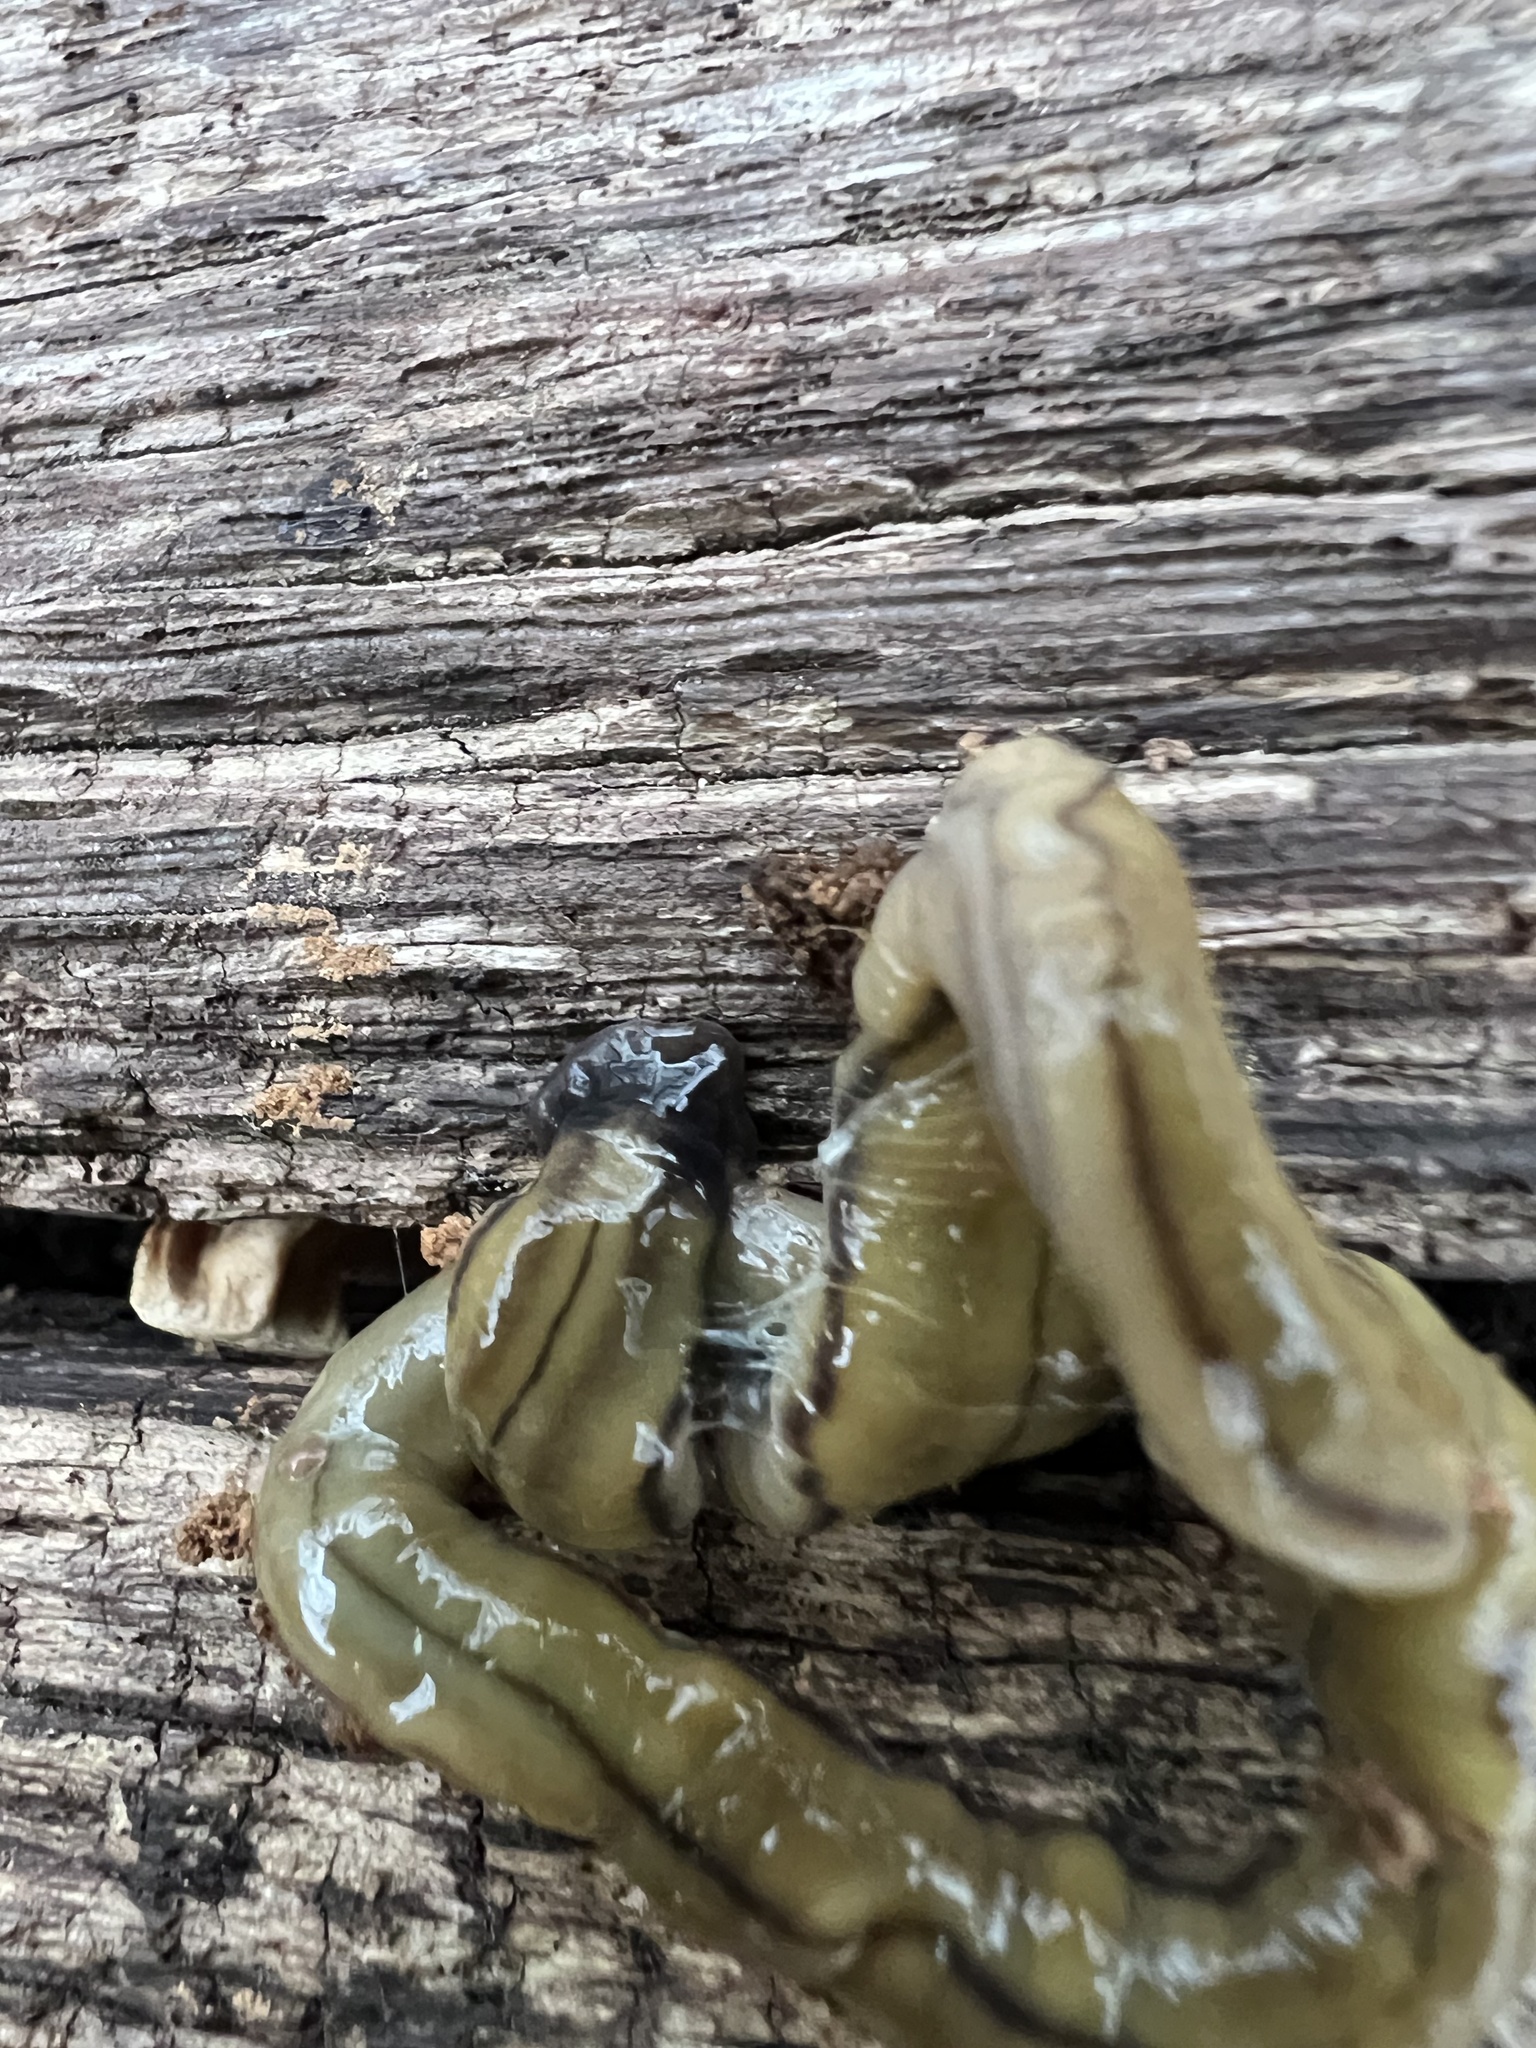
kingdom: Animalia
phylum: Platyhelminthes
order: Tricladida
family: Geoplanidae
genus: Bipalium
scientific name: Bipalium kewense
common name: Hammerhead flatworm
